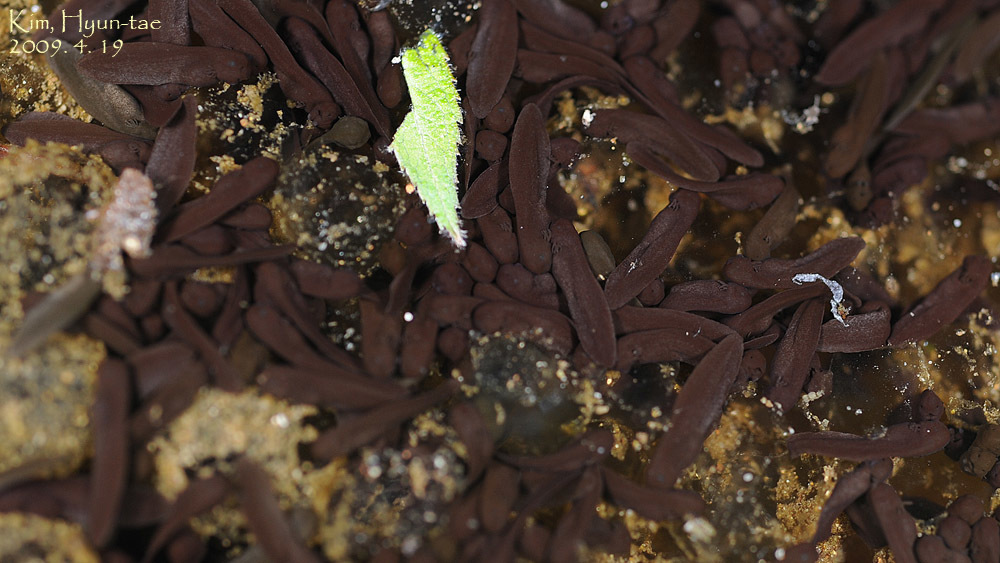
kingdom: Animalia
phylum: Chordata
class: Amphibia
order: Anura
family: Ranidae
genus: Rana
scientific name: Rana uenoi
